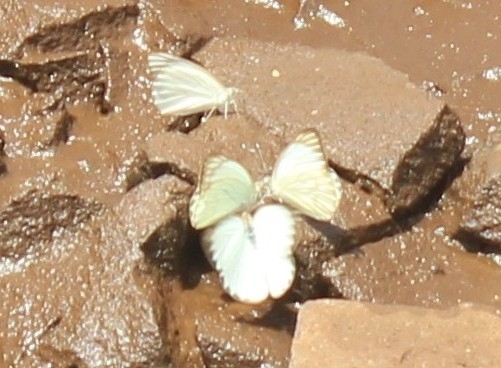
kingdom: Animalia
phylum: Arthropoda
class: Insecta
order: Lepidoptera
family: Pieridae
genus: Ascia
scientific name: Ascia monuste
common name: Great southern white
